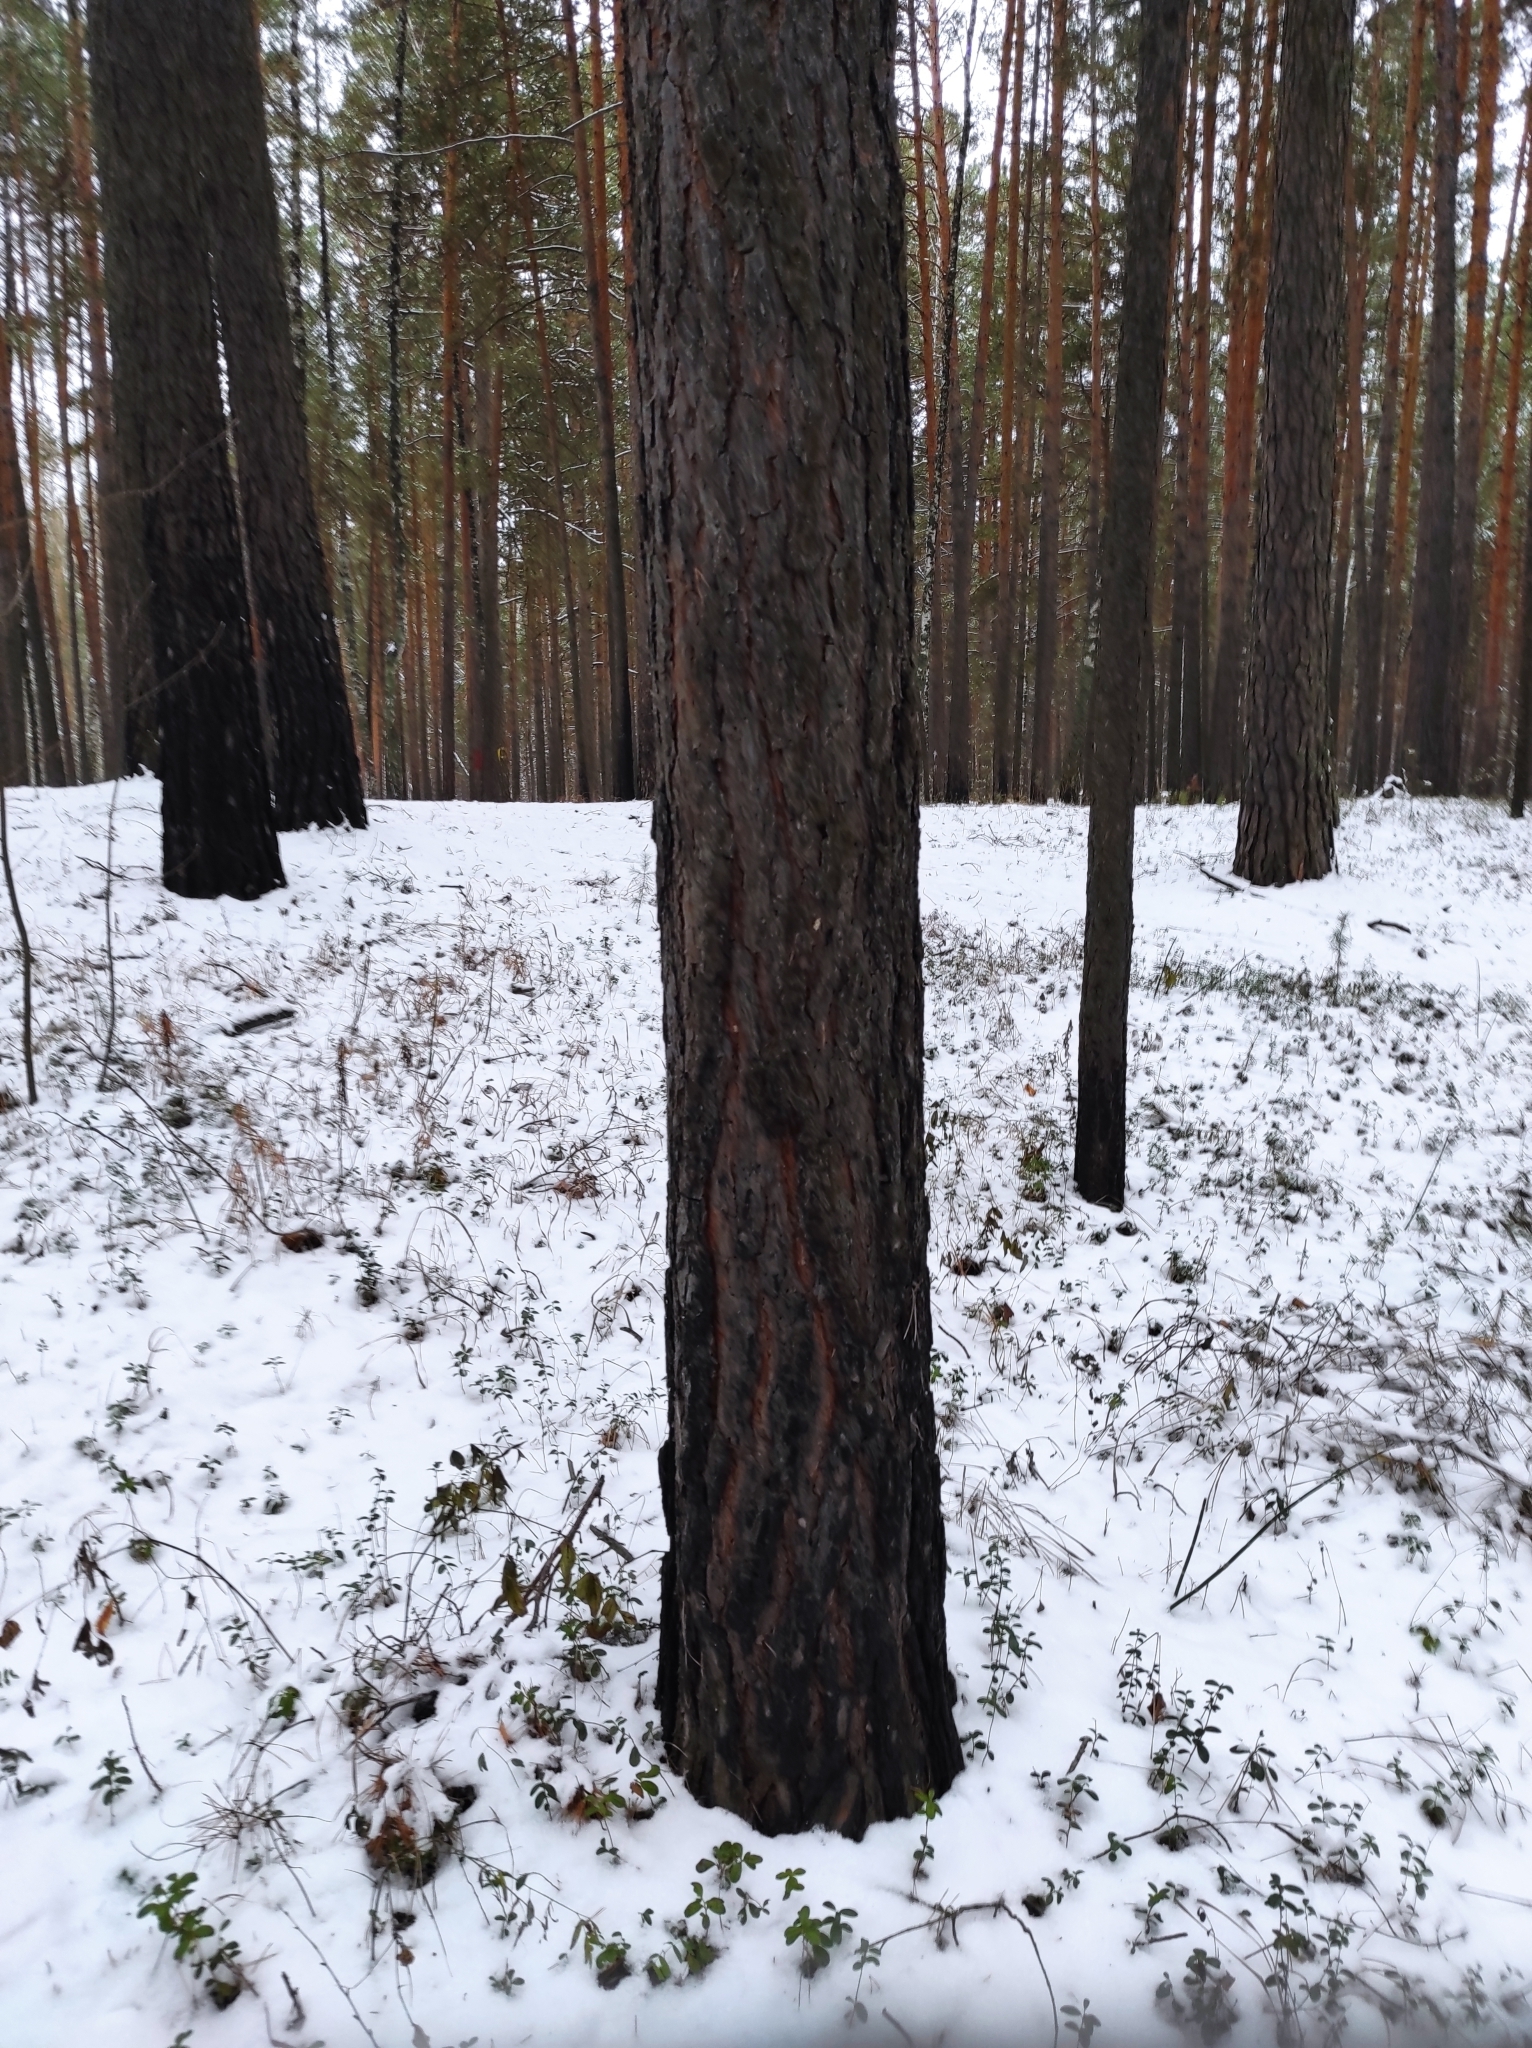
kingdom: Plantae
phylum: Tracheophyta
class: Pinopsida
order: Pinales
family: Pinaceae
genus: Pinus
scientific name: Pinus sylvestris
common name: Scots pine
